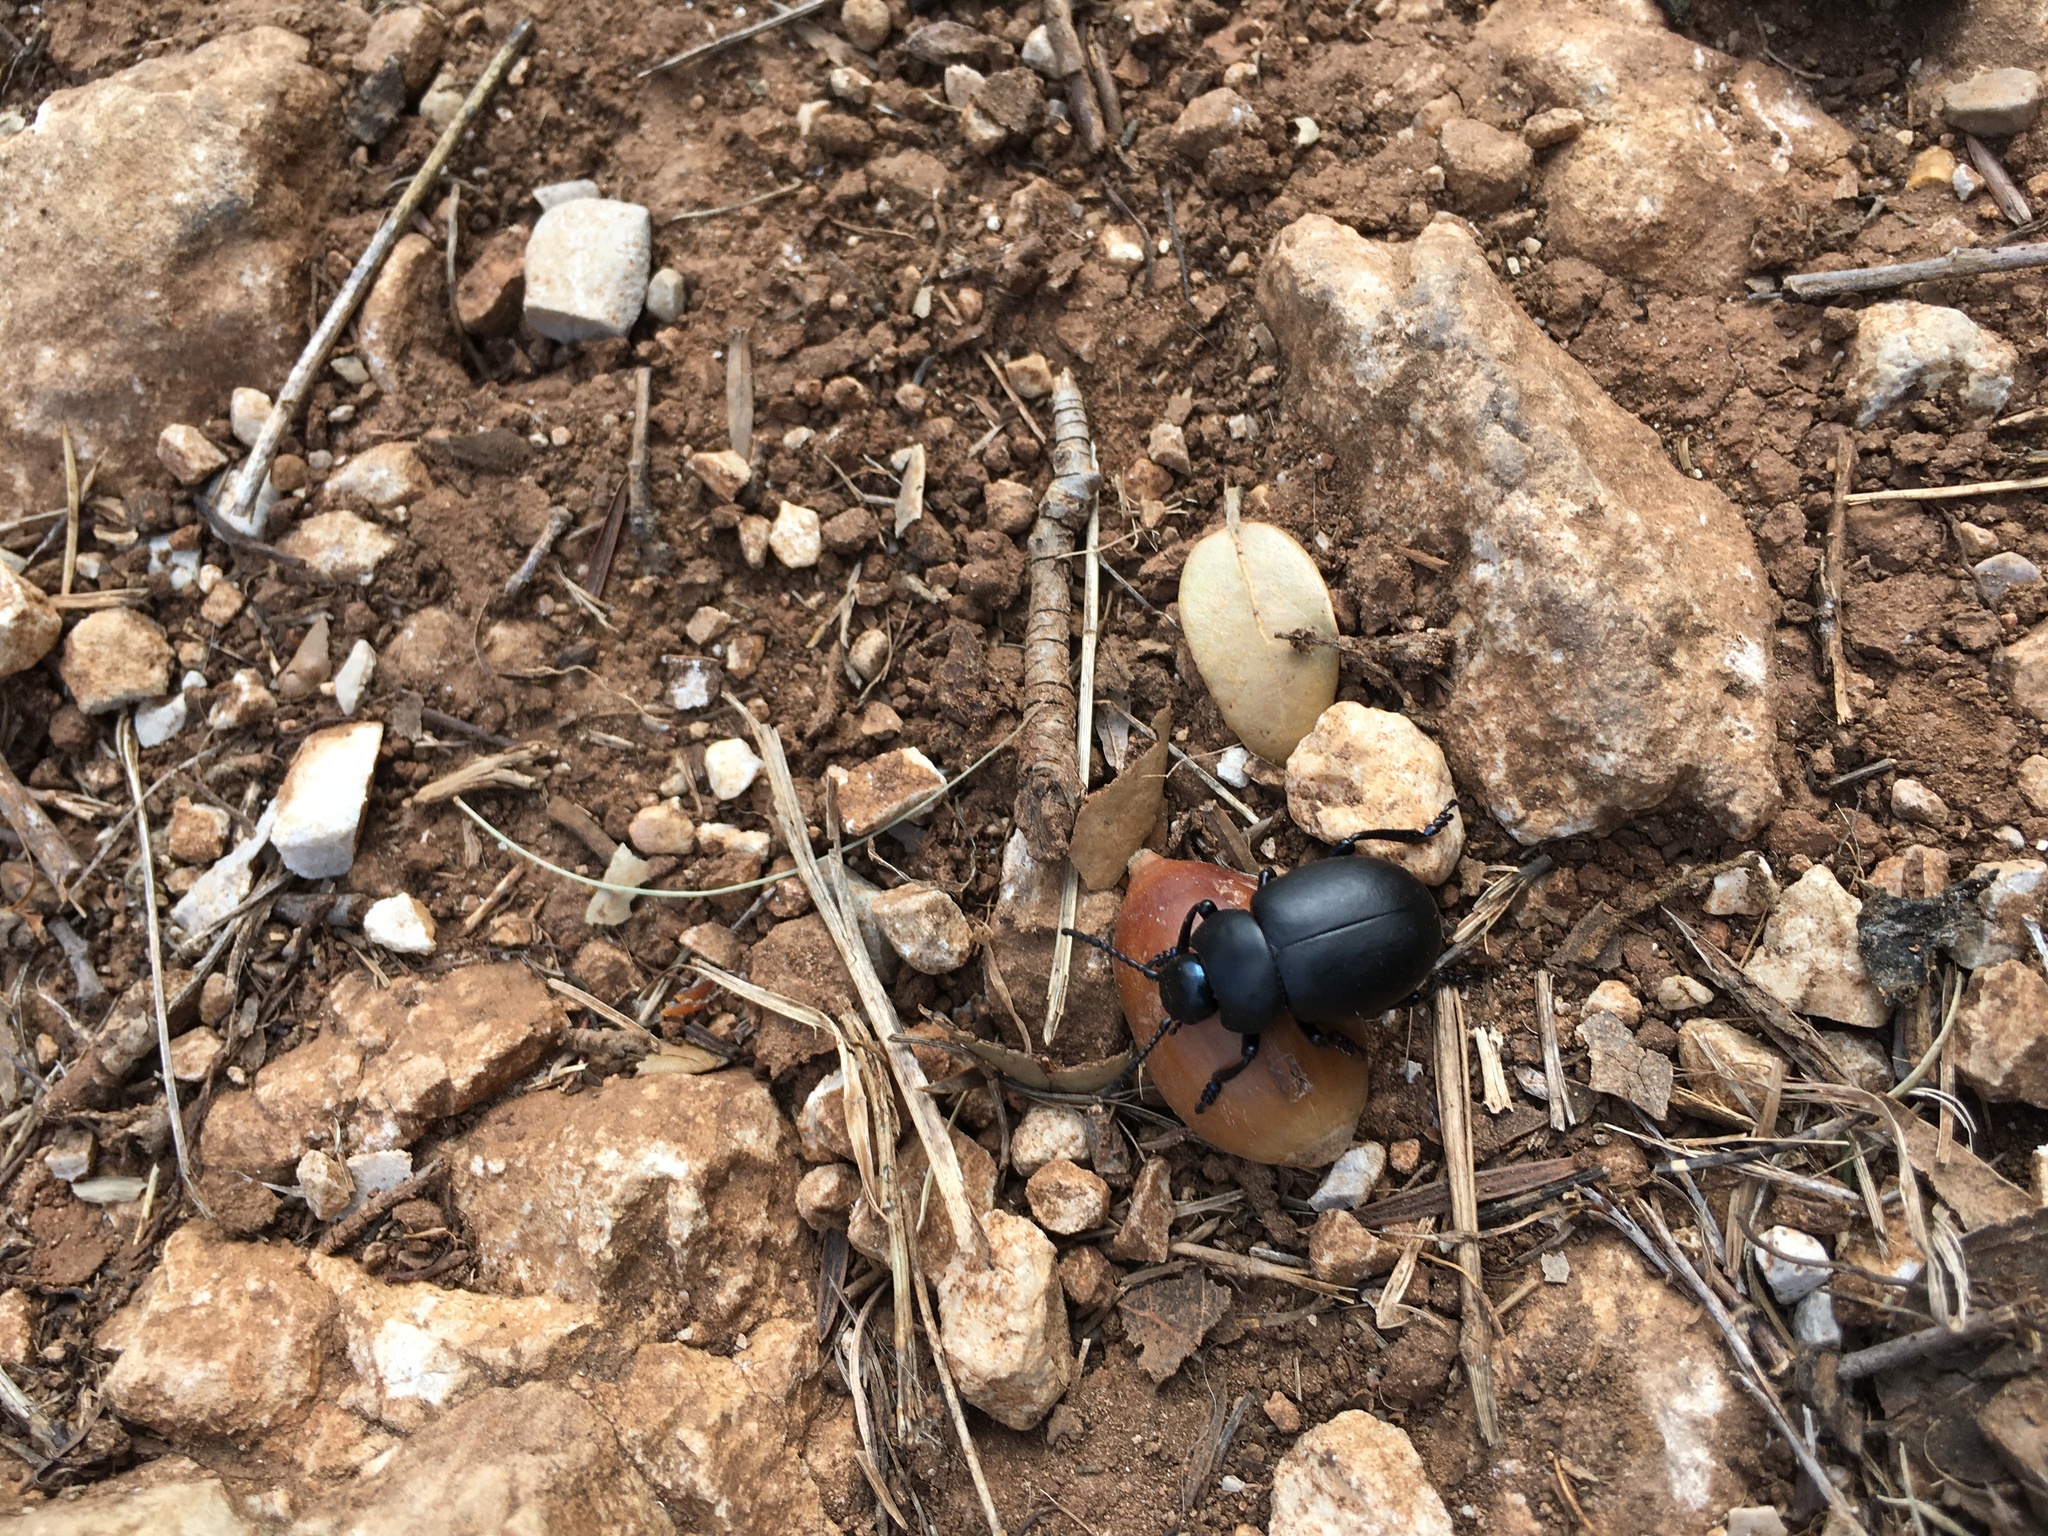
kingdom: Animalia
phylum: Arthropoda
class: Insecta
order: Coleoptera
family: Chrysomelidae
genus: Timarcha
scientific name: Timarcha nicaeensis
